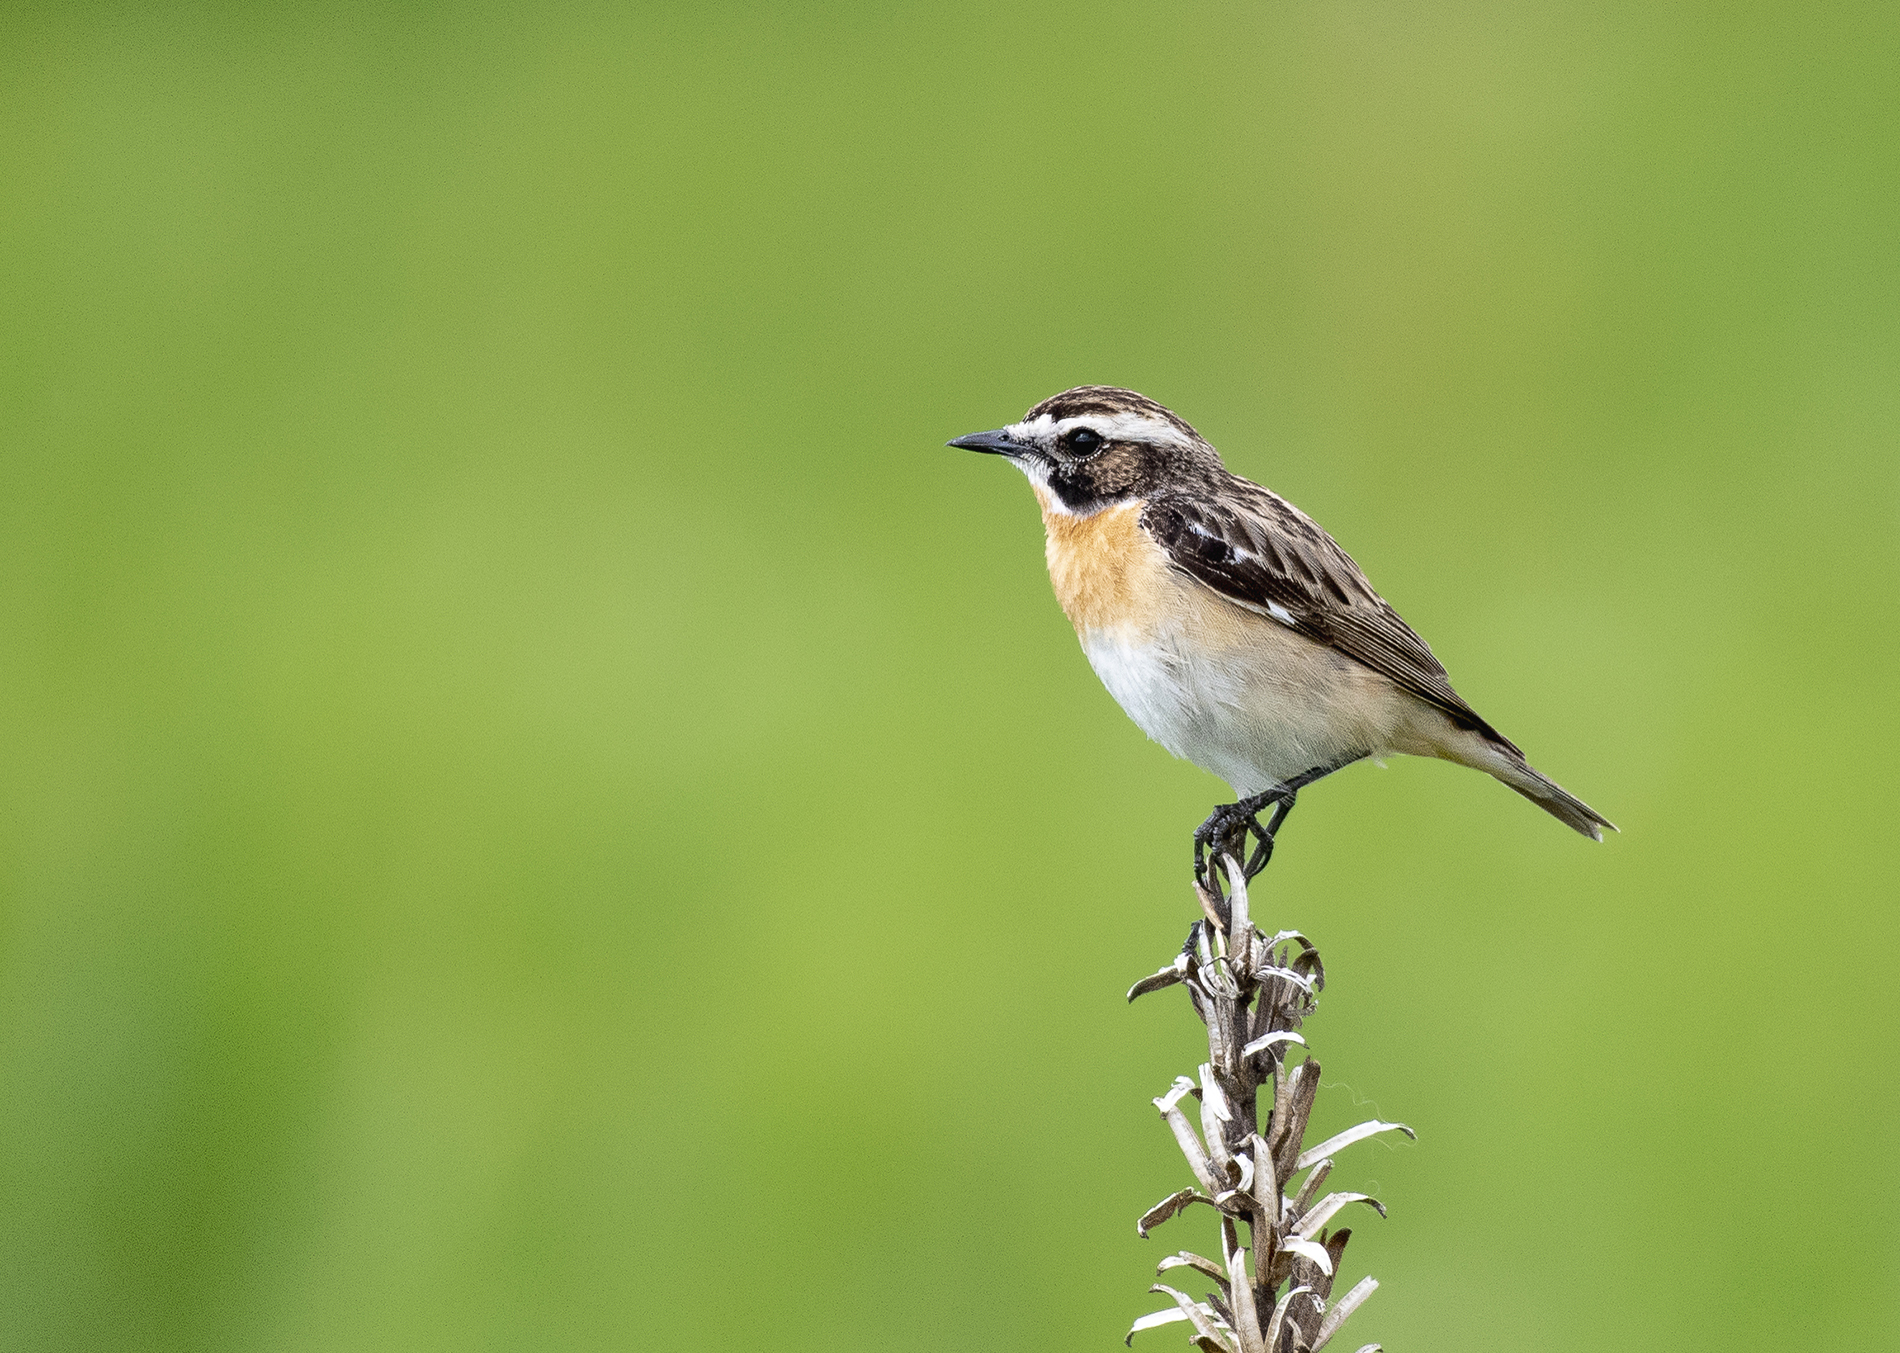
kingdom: Animalia
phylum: Chordata
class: Aves
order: Passeriformes
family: Muscicapidae
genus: Saxicola
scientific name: Saxicola rubetra
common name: Whinchat
